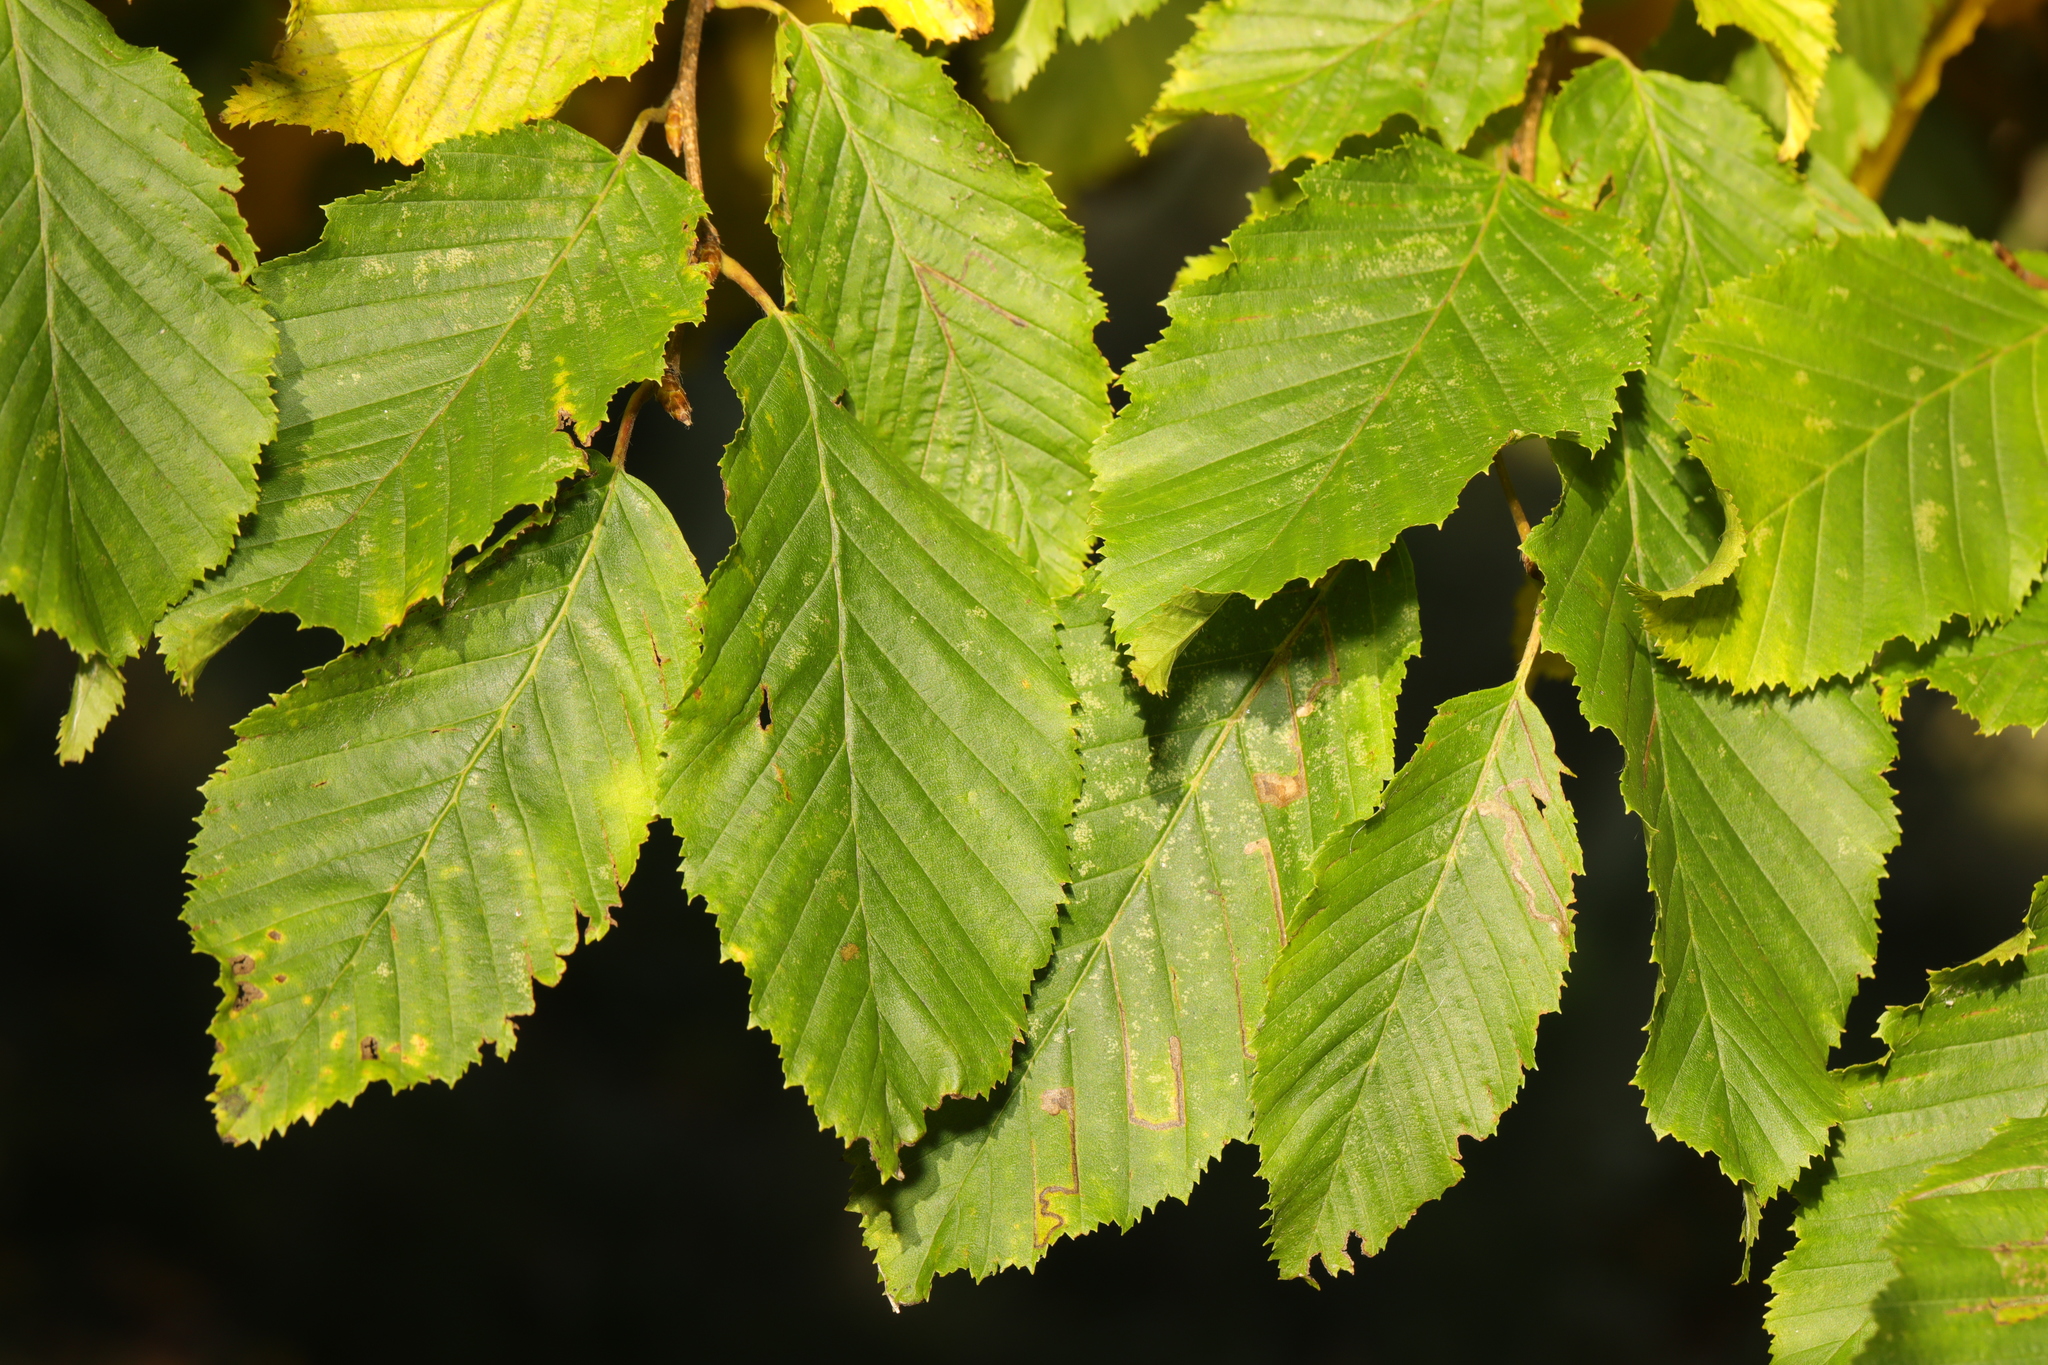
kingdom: Plantae
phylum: Tracheophyta
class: Magnoliopsida
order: Fagales
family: Betulaceae
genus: Carpinus
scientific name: Carpinus betulus
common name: Hornbeam
